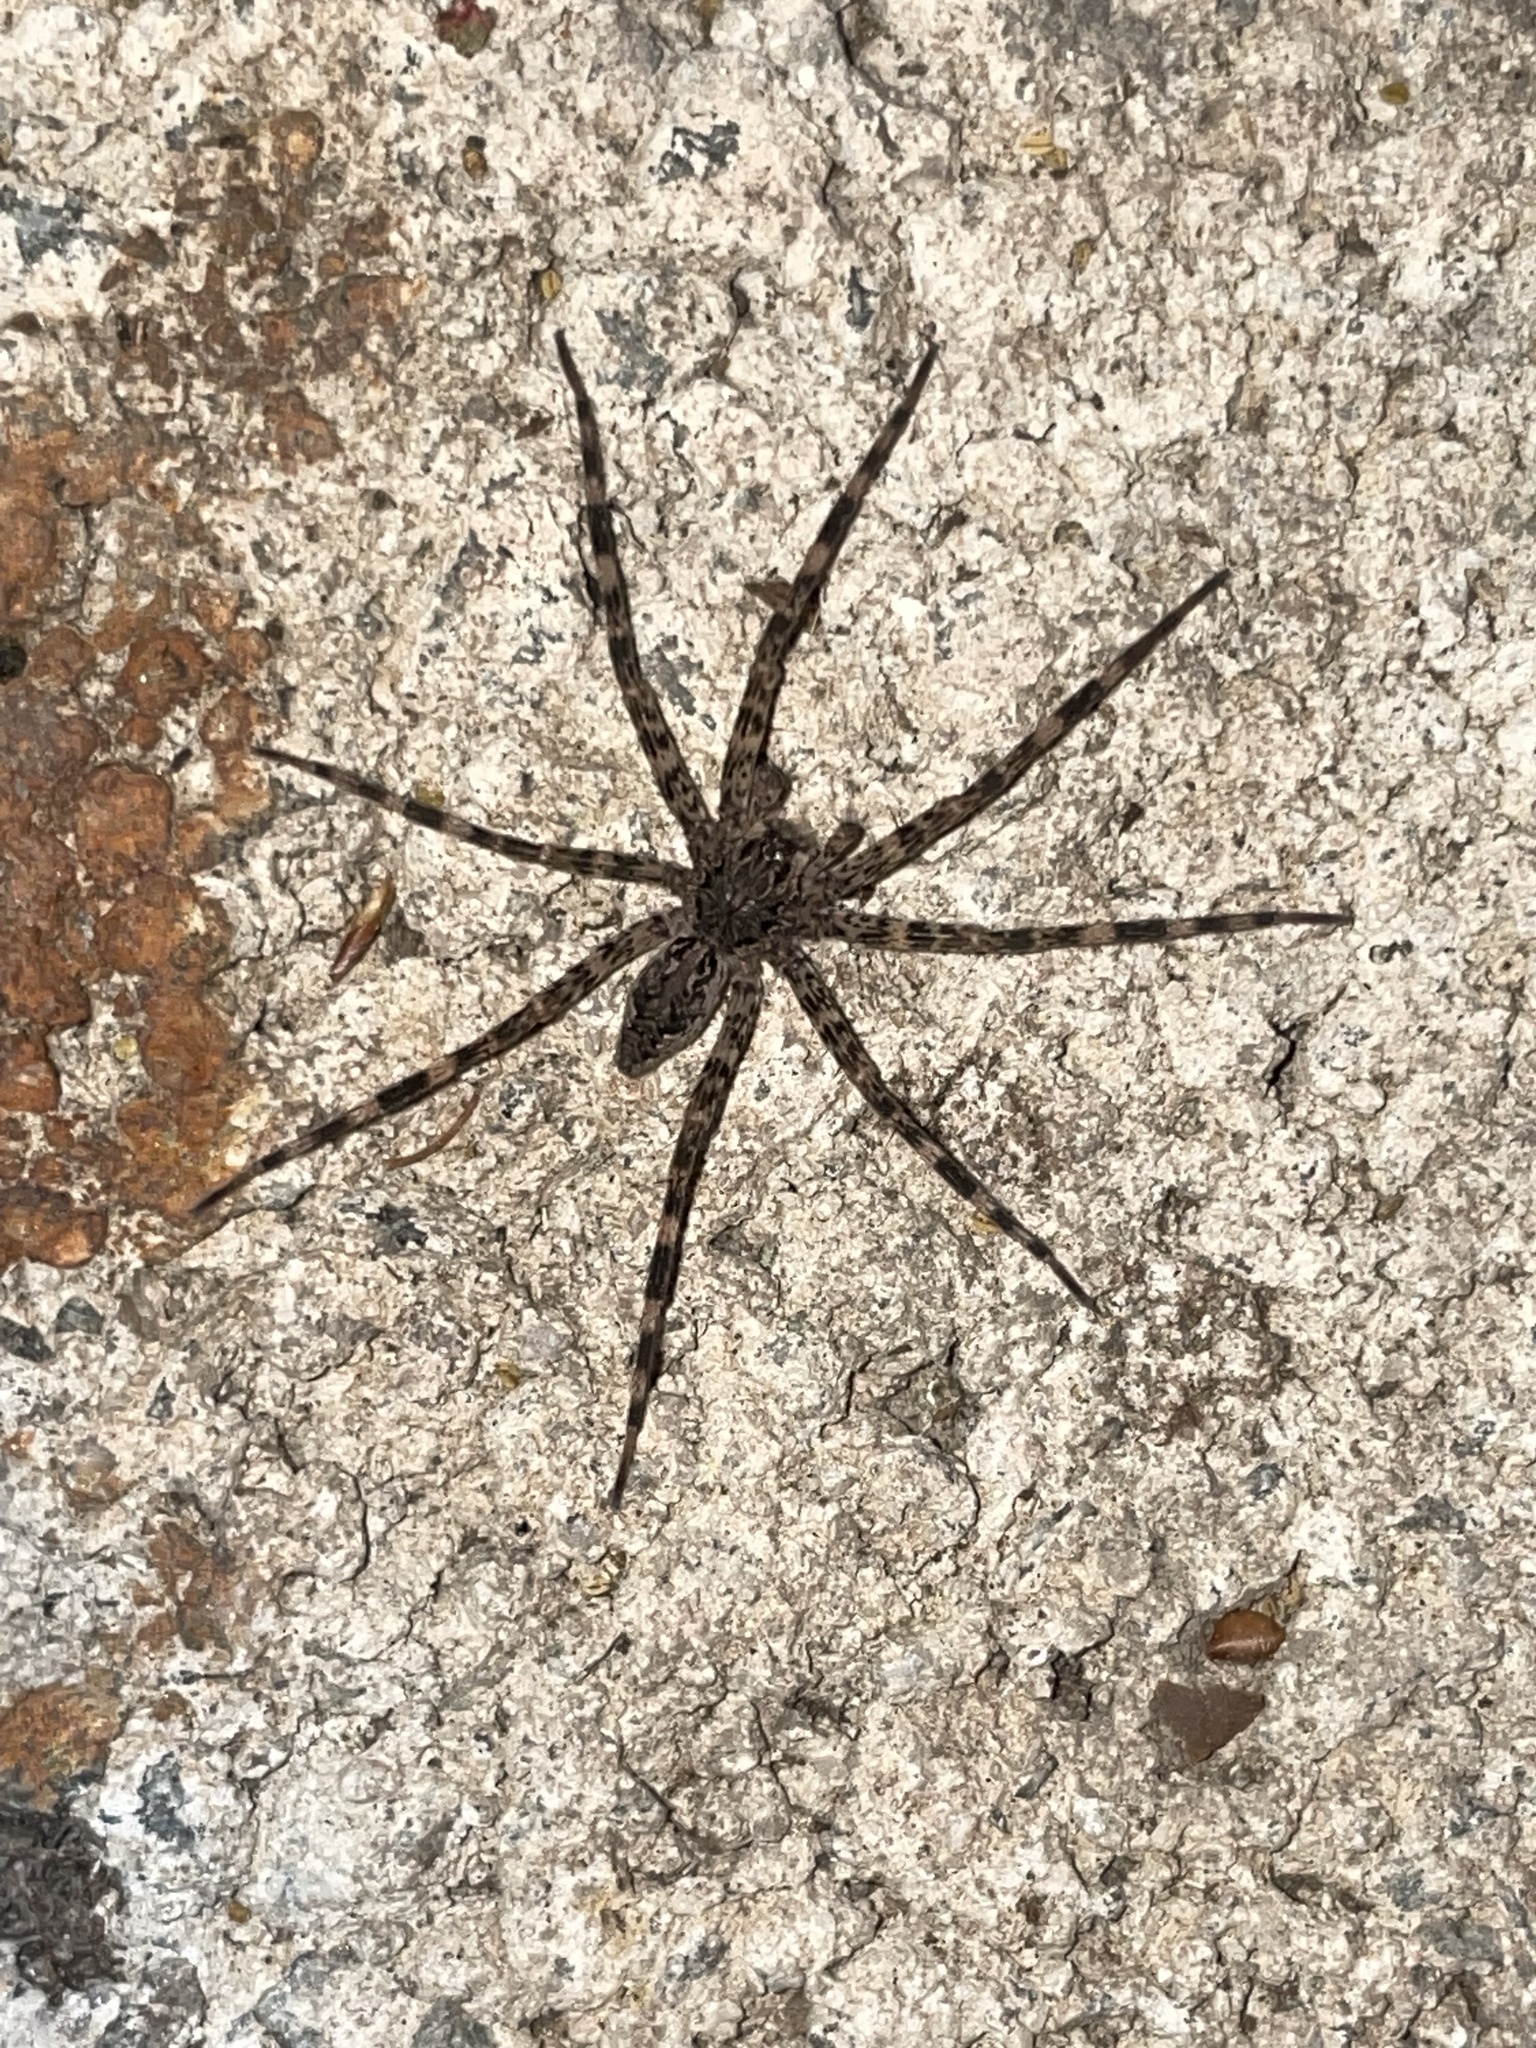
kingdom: Animalia
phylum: Arthropoda
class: Arachnida
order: Araneae
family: Pisauridae
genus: Dolomedes
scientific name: Dolomedes tenebrosus
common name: Dark fishing spider
